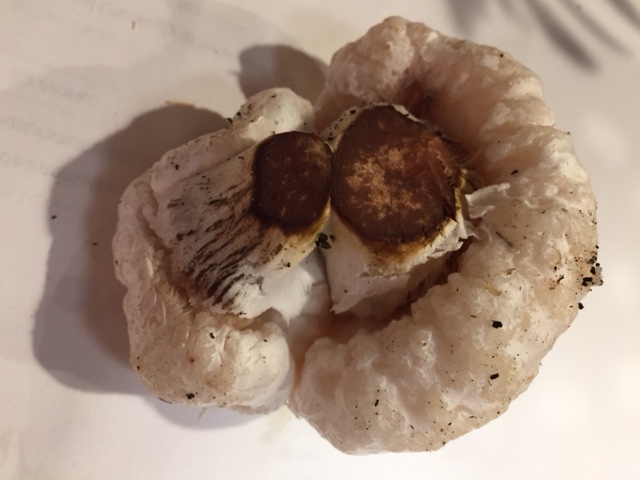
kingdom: Fungi
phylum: Basidiomycota
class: Agaricomycetes
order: Agaricales
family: Entolomataceae
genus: Entoloma
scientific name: Entoloma abortivum
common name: Aborted entoloma
